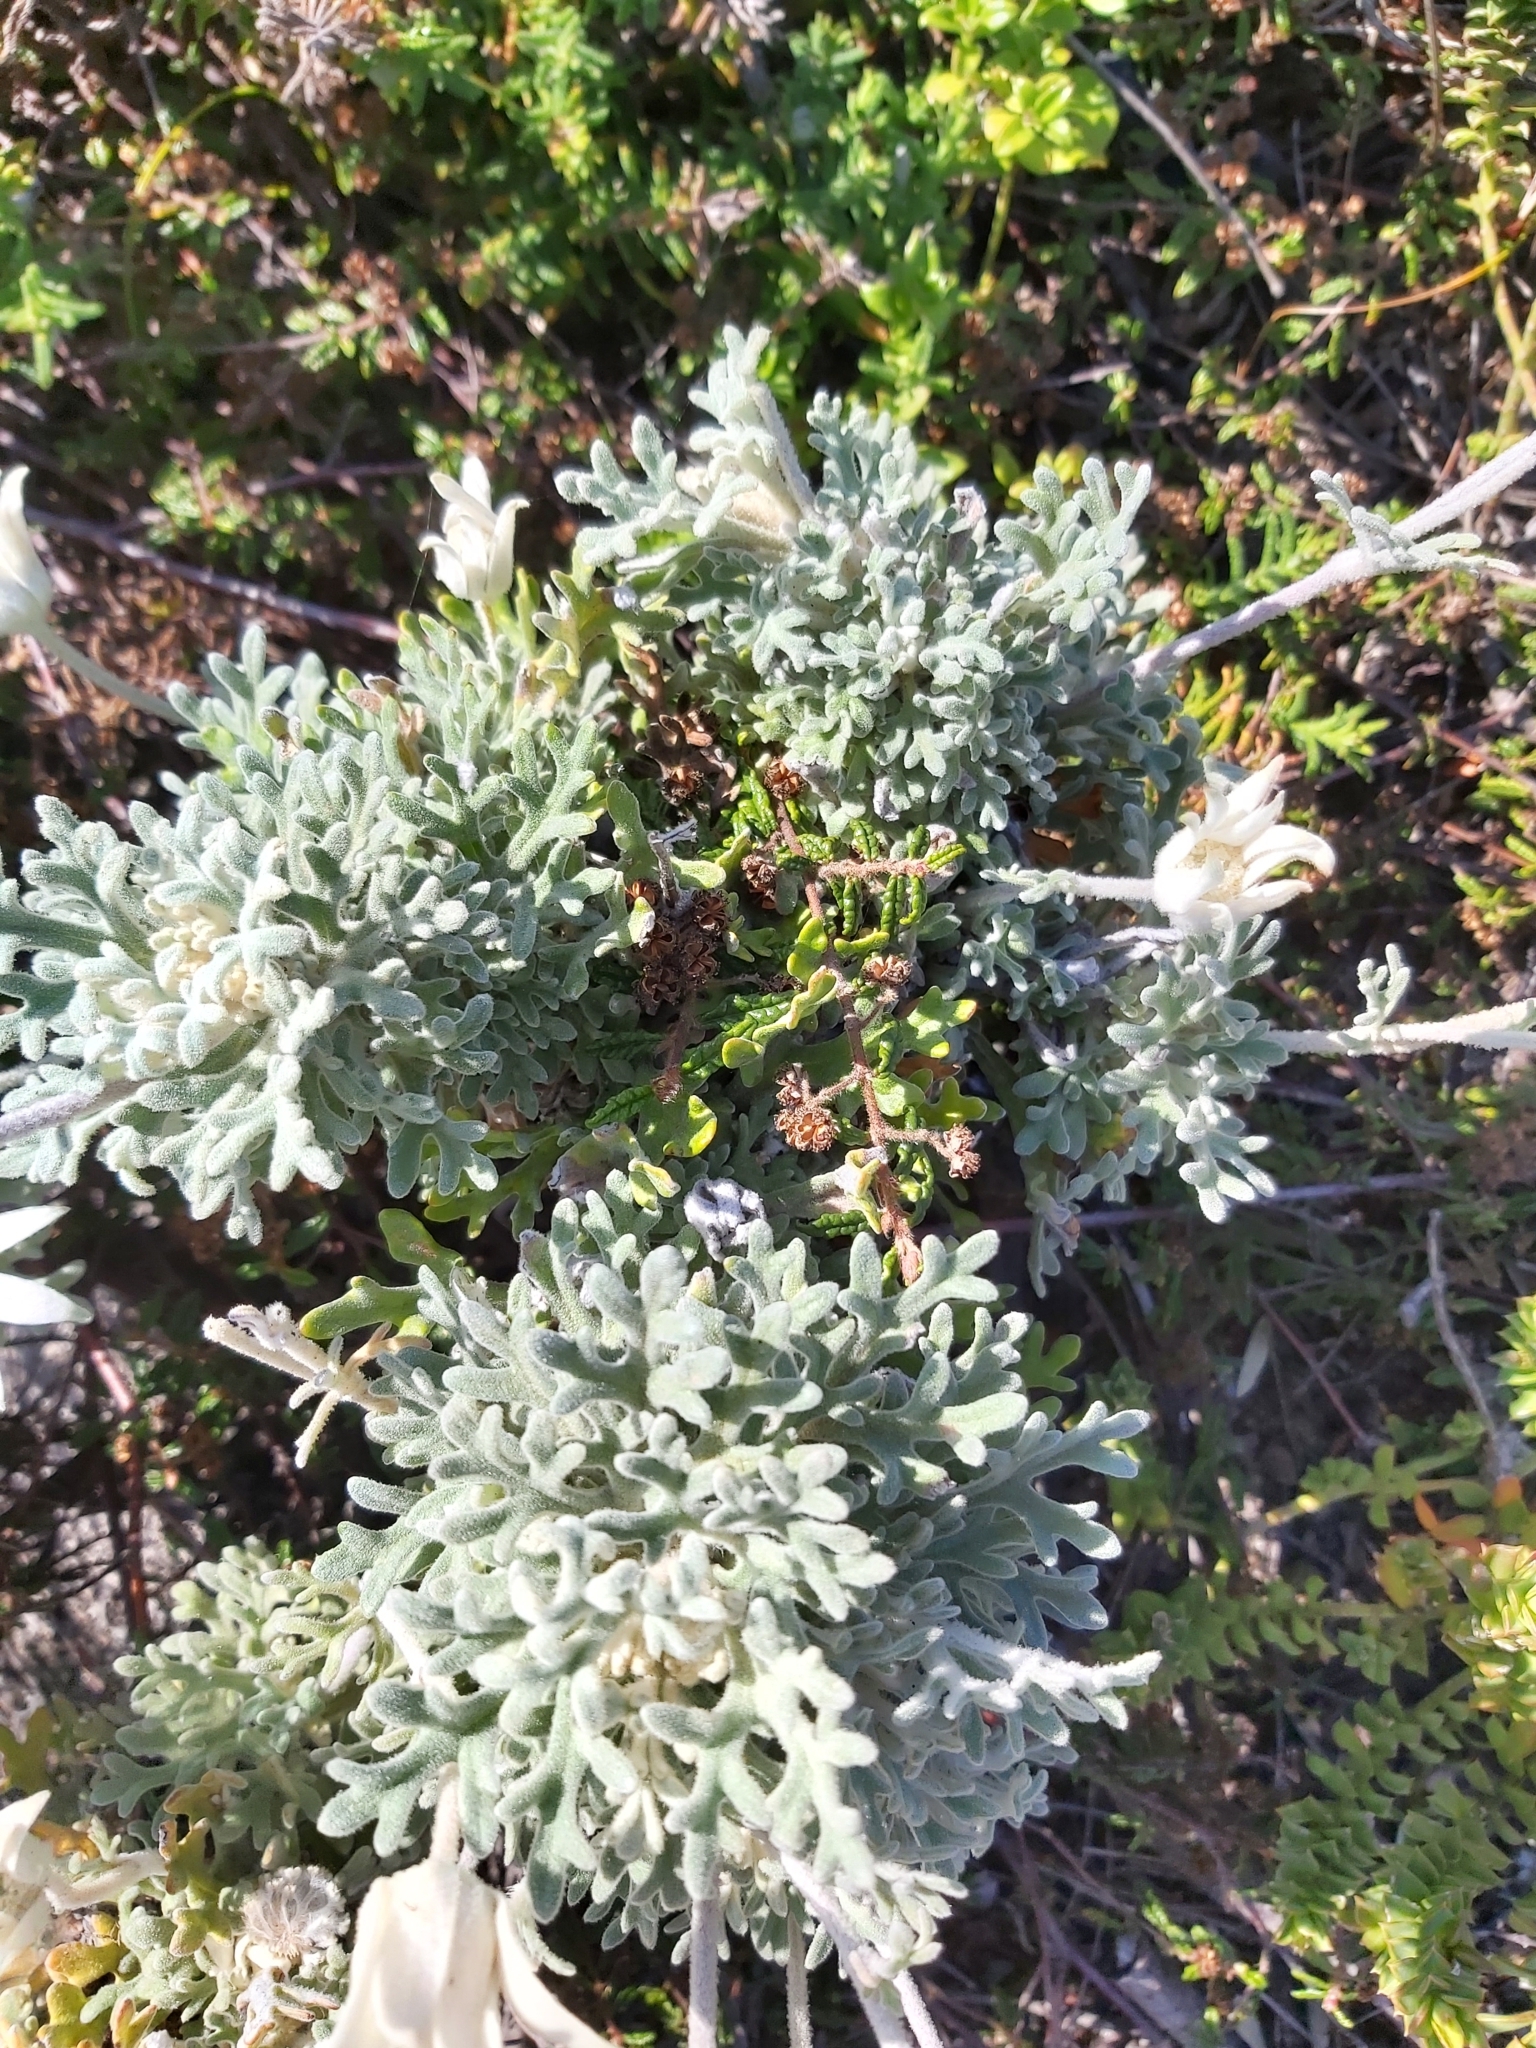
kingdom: Plantae
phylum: Tracheophyta
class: Magnoliopsida
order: Apiales
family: Apiaceae
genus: Actinotus
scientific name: Actinotus helianthi
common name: Flannel-flower
